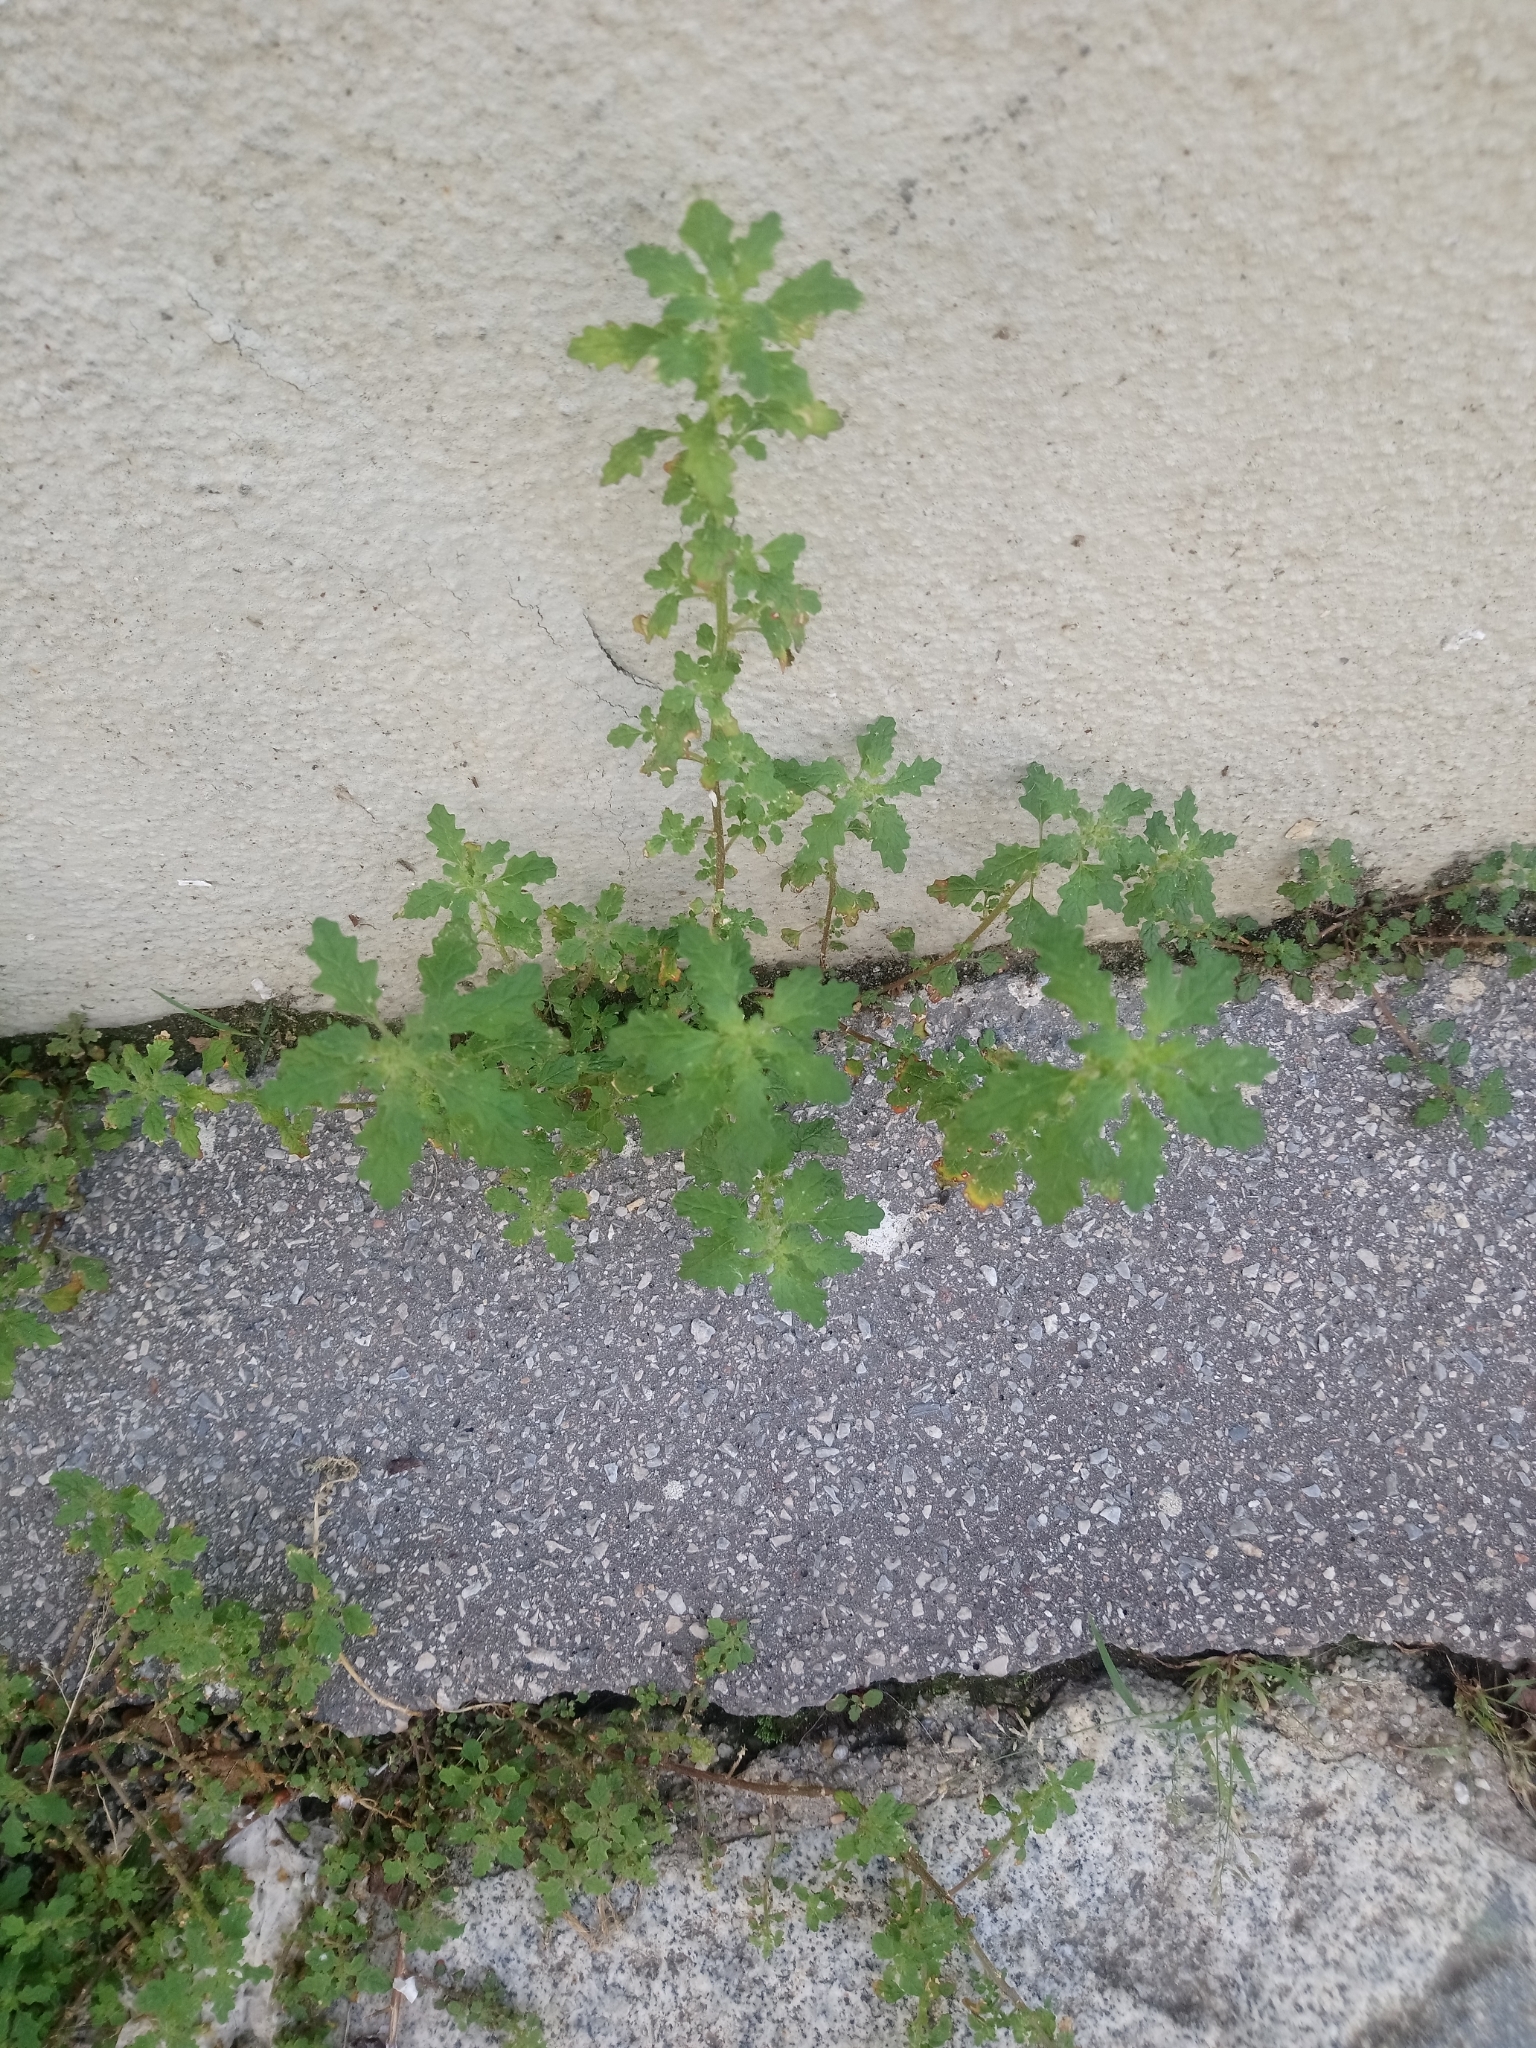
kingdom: Plantae
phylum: Tracheophyta
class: Magnoliopsida
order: Caryophyllales
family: Amaranthaceae
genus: Dysphania
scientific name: Dysphania pumilio
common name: Clammy goosefoot
